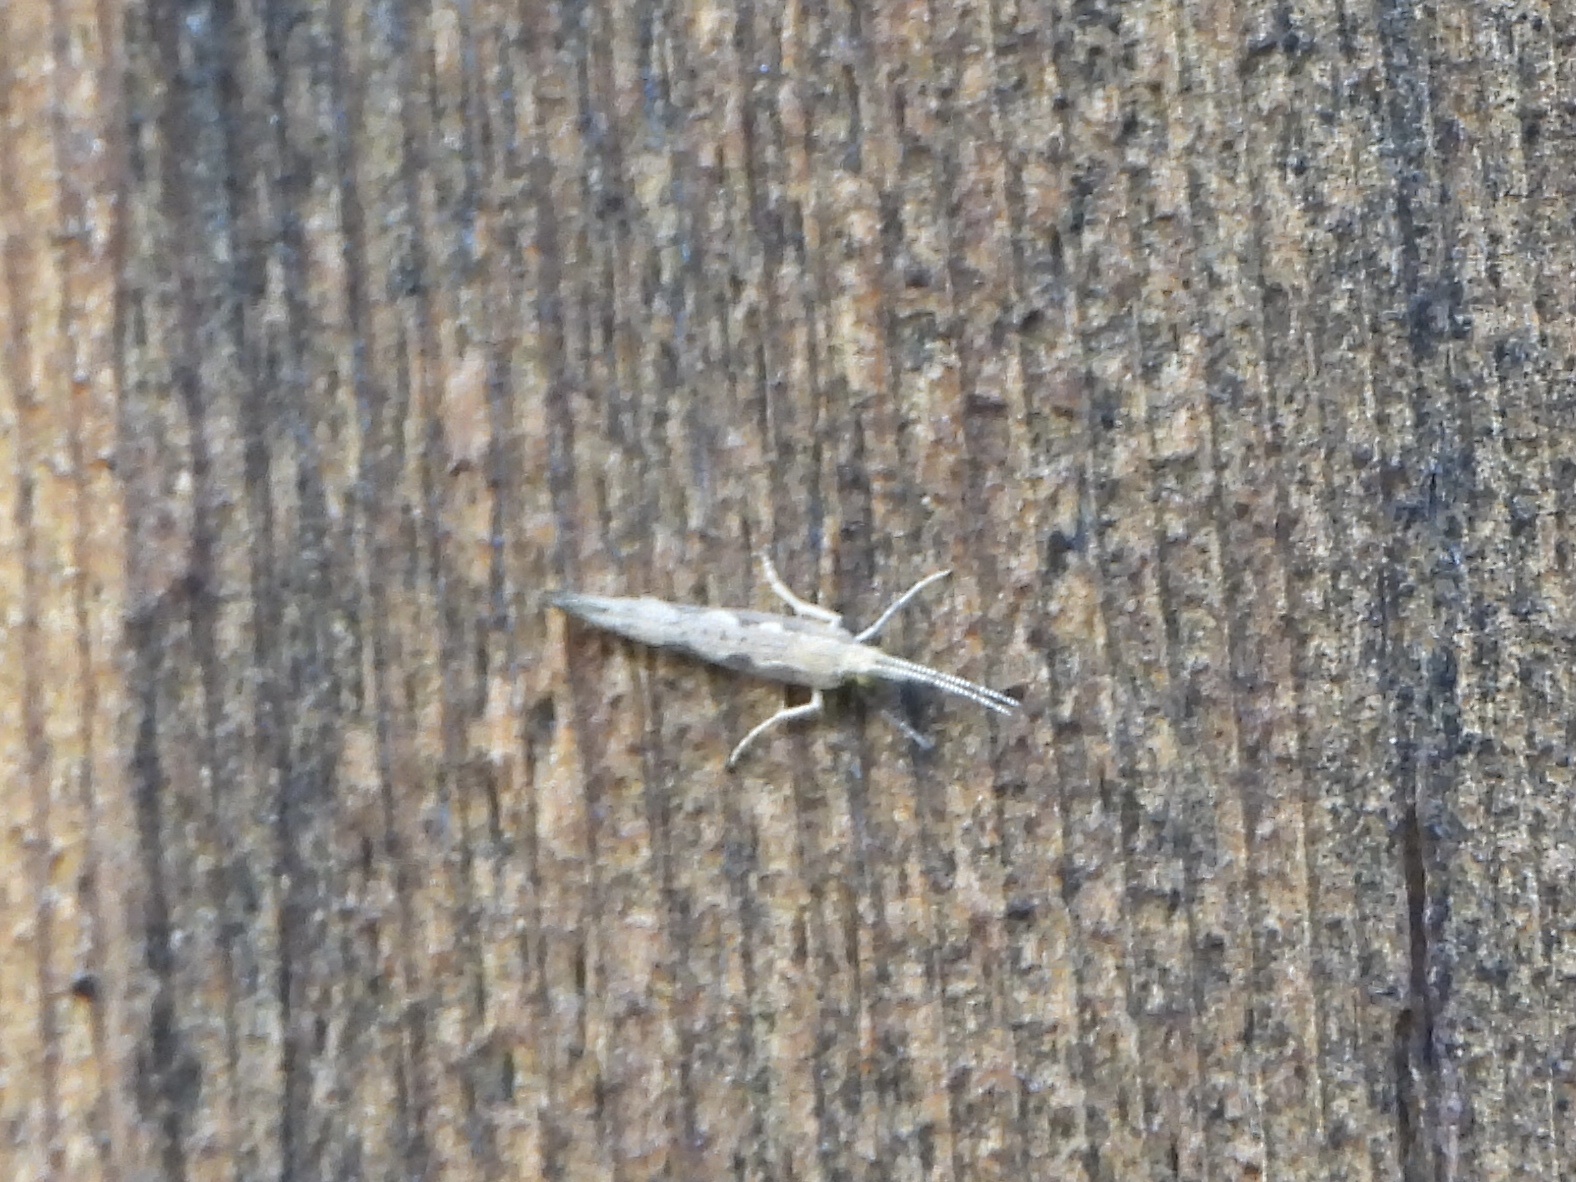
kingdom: Animalia
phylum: Arthropoda
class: Insecta
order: Lepidoptera
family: Plutellidae
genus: Plutella
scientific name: Plutella xylostella
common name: Diamond-back moth
